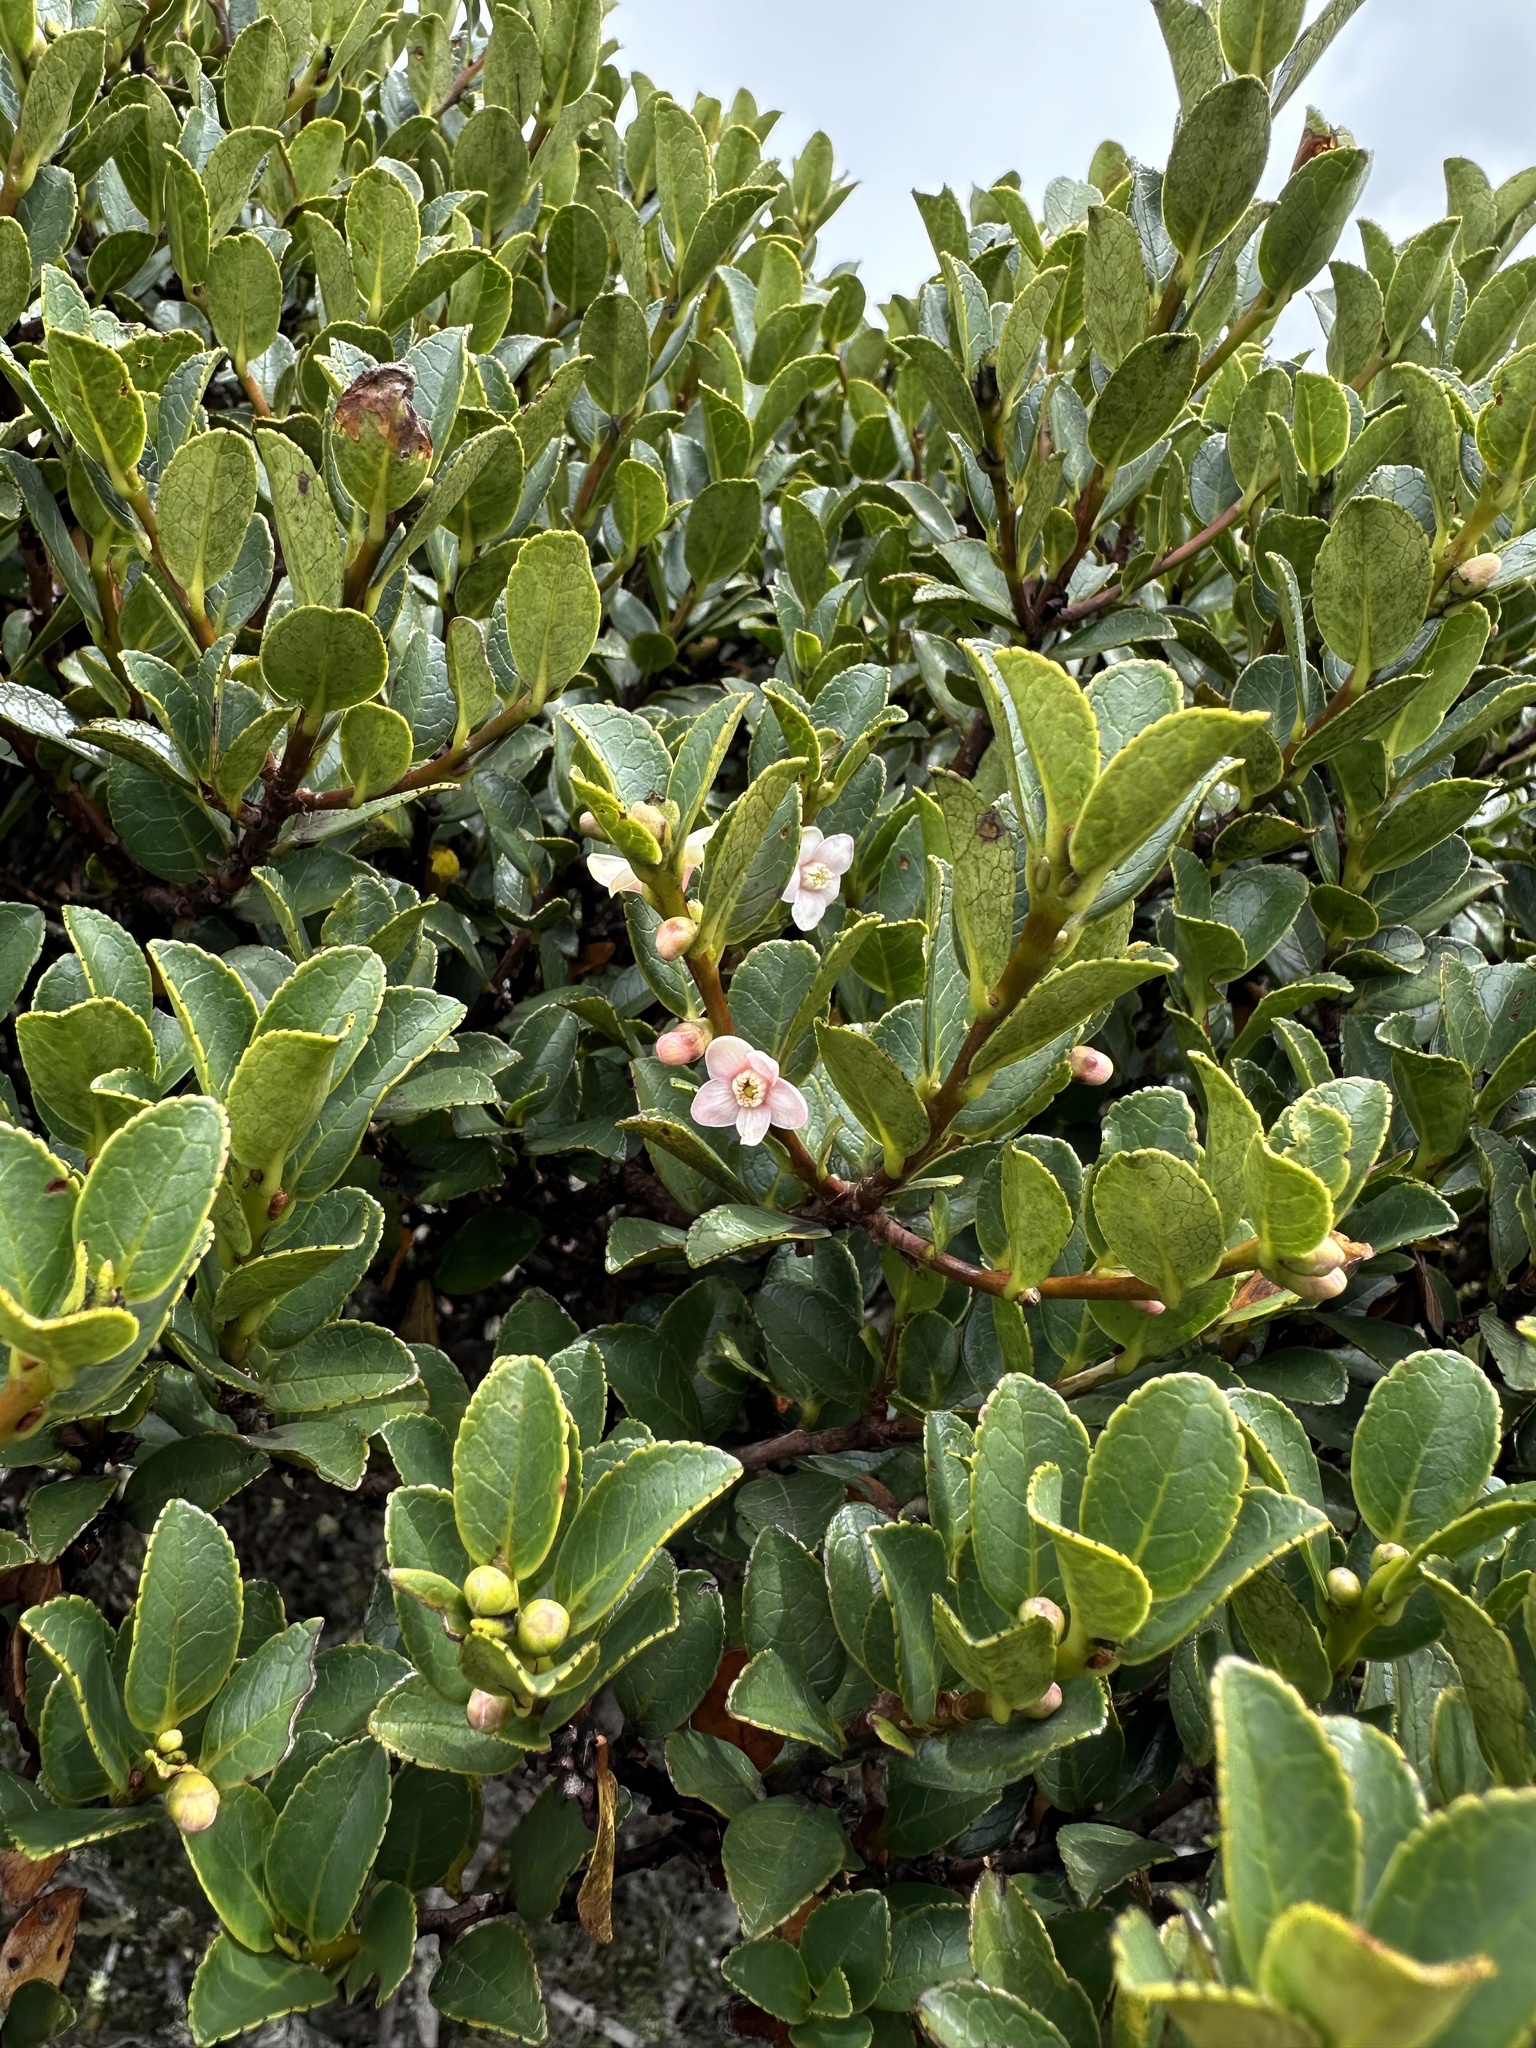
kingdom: Plantae
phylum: Tracheophyta
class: Magnoliopsida
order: Ericales
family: Symplocaceae
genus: Symplocos
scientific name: Symplocos theiformis
